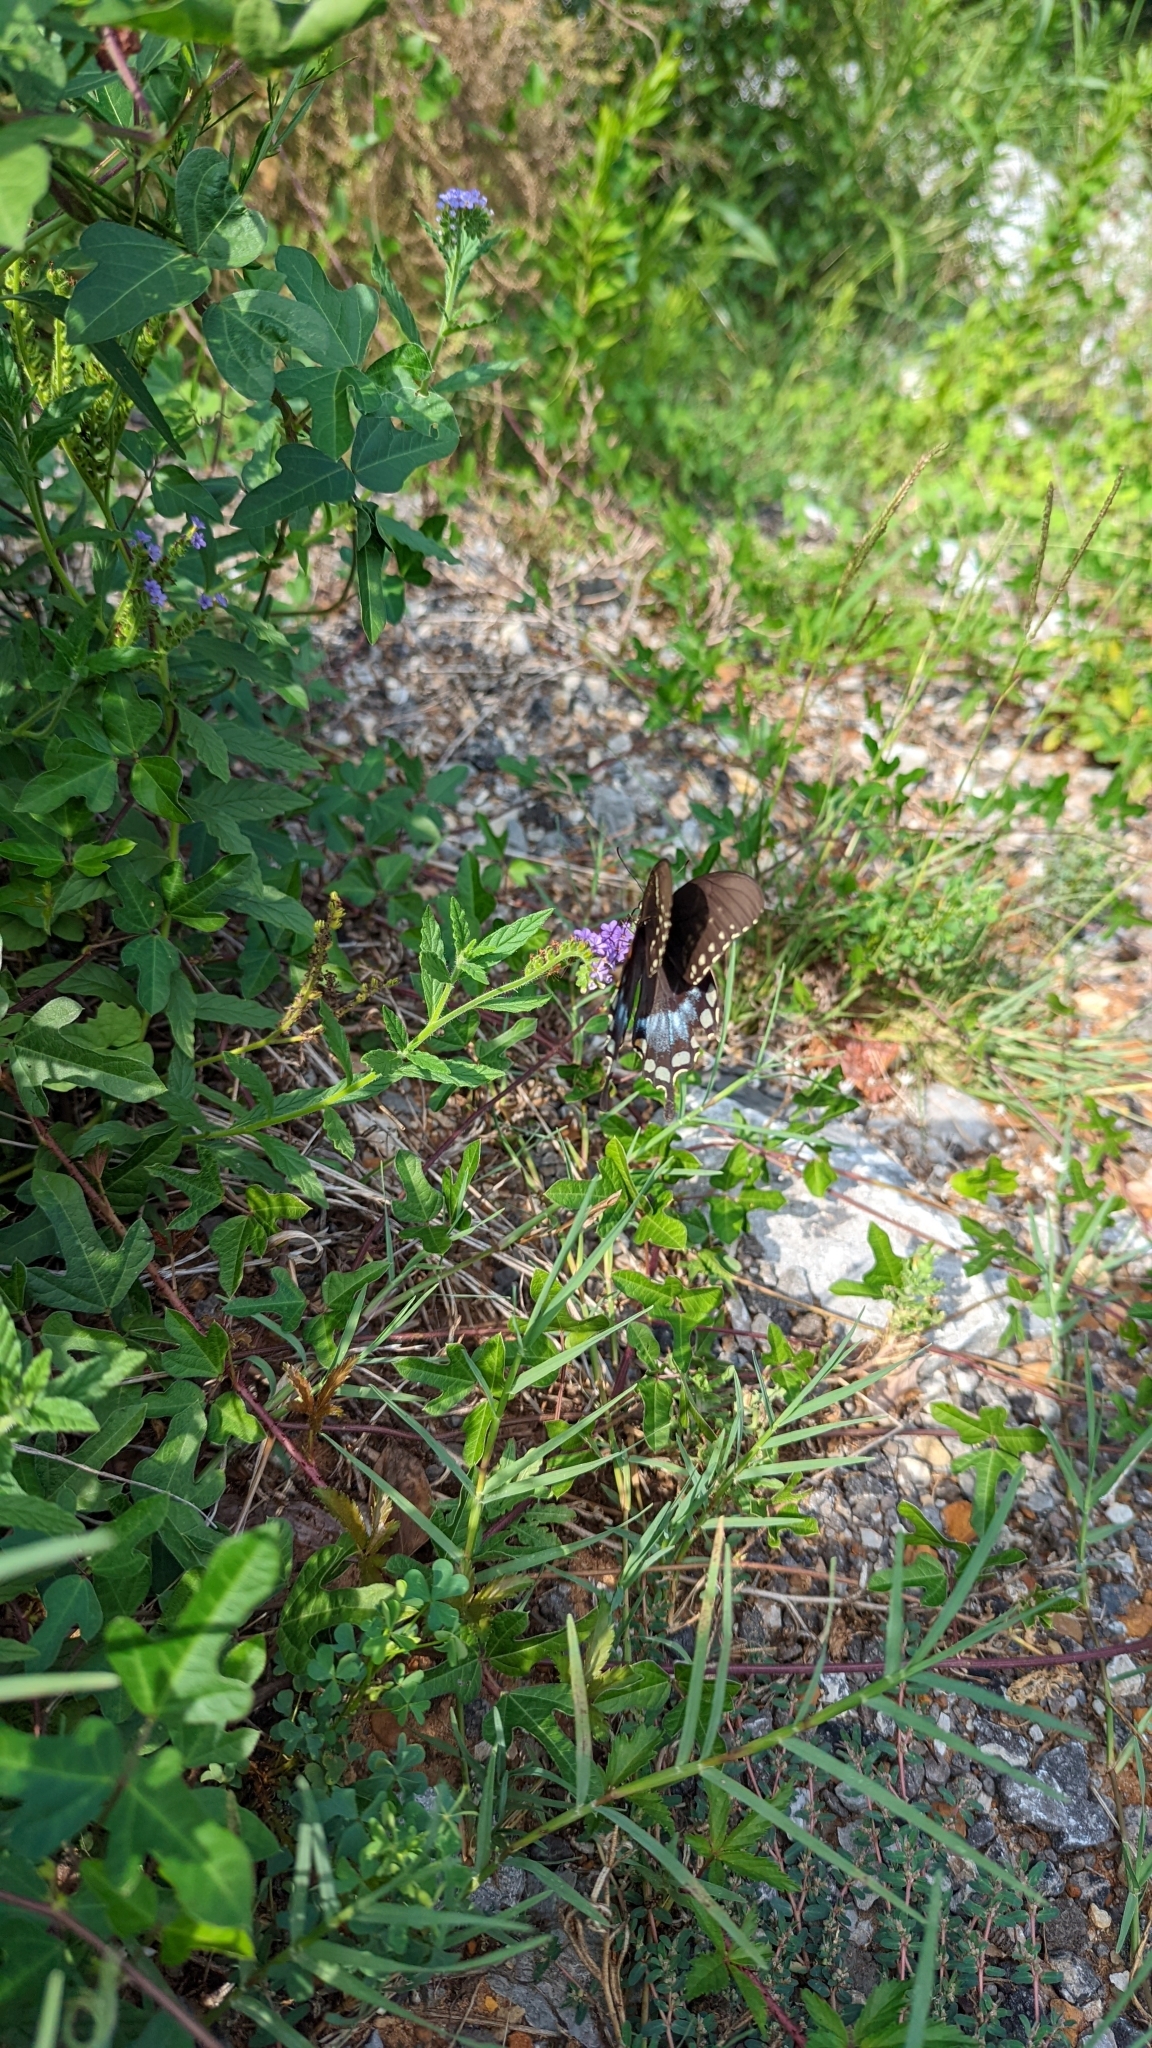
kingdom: Animalia
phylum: Arthropoda
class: Insecta
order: Lepidoptera
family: Papilionidae
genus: Papilio
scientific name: Papilio troilus
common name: Spicebush swallowtail
